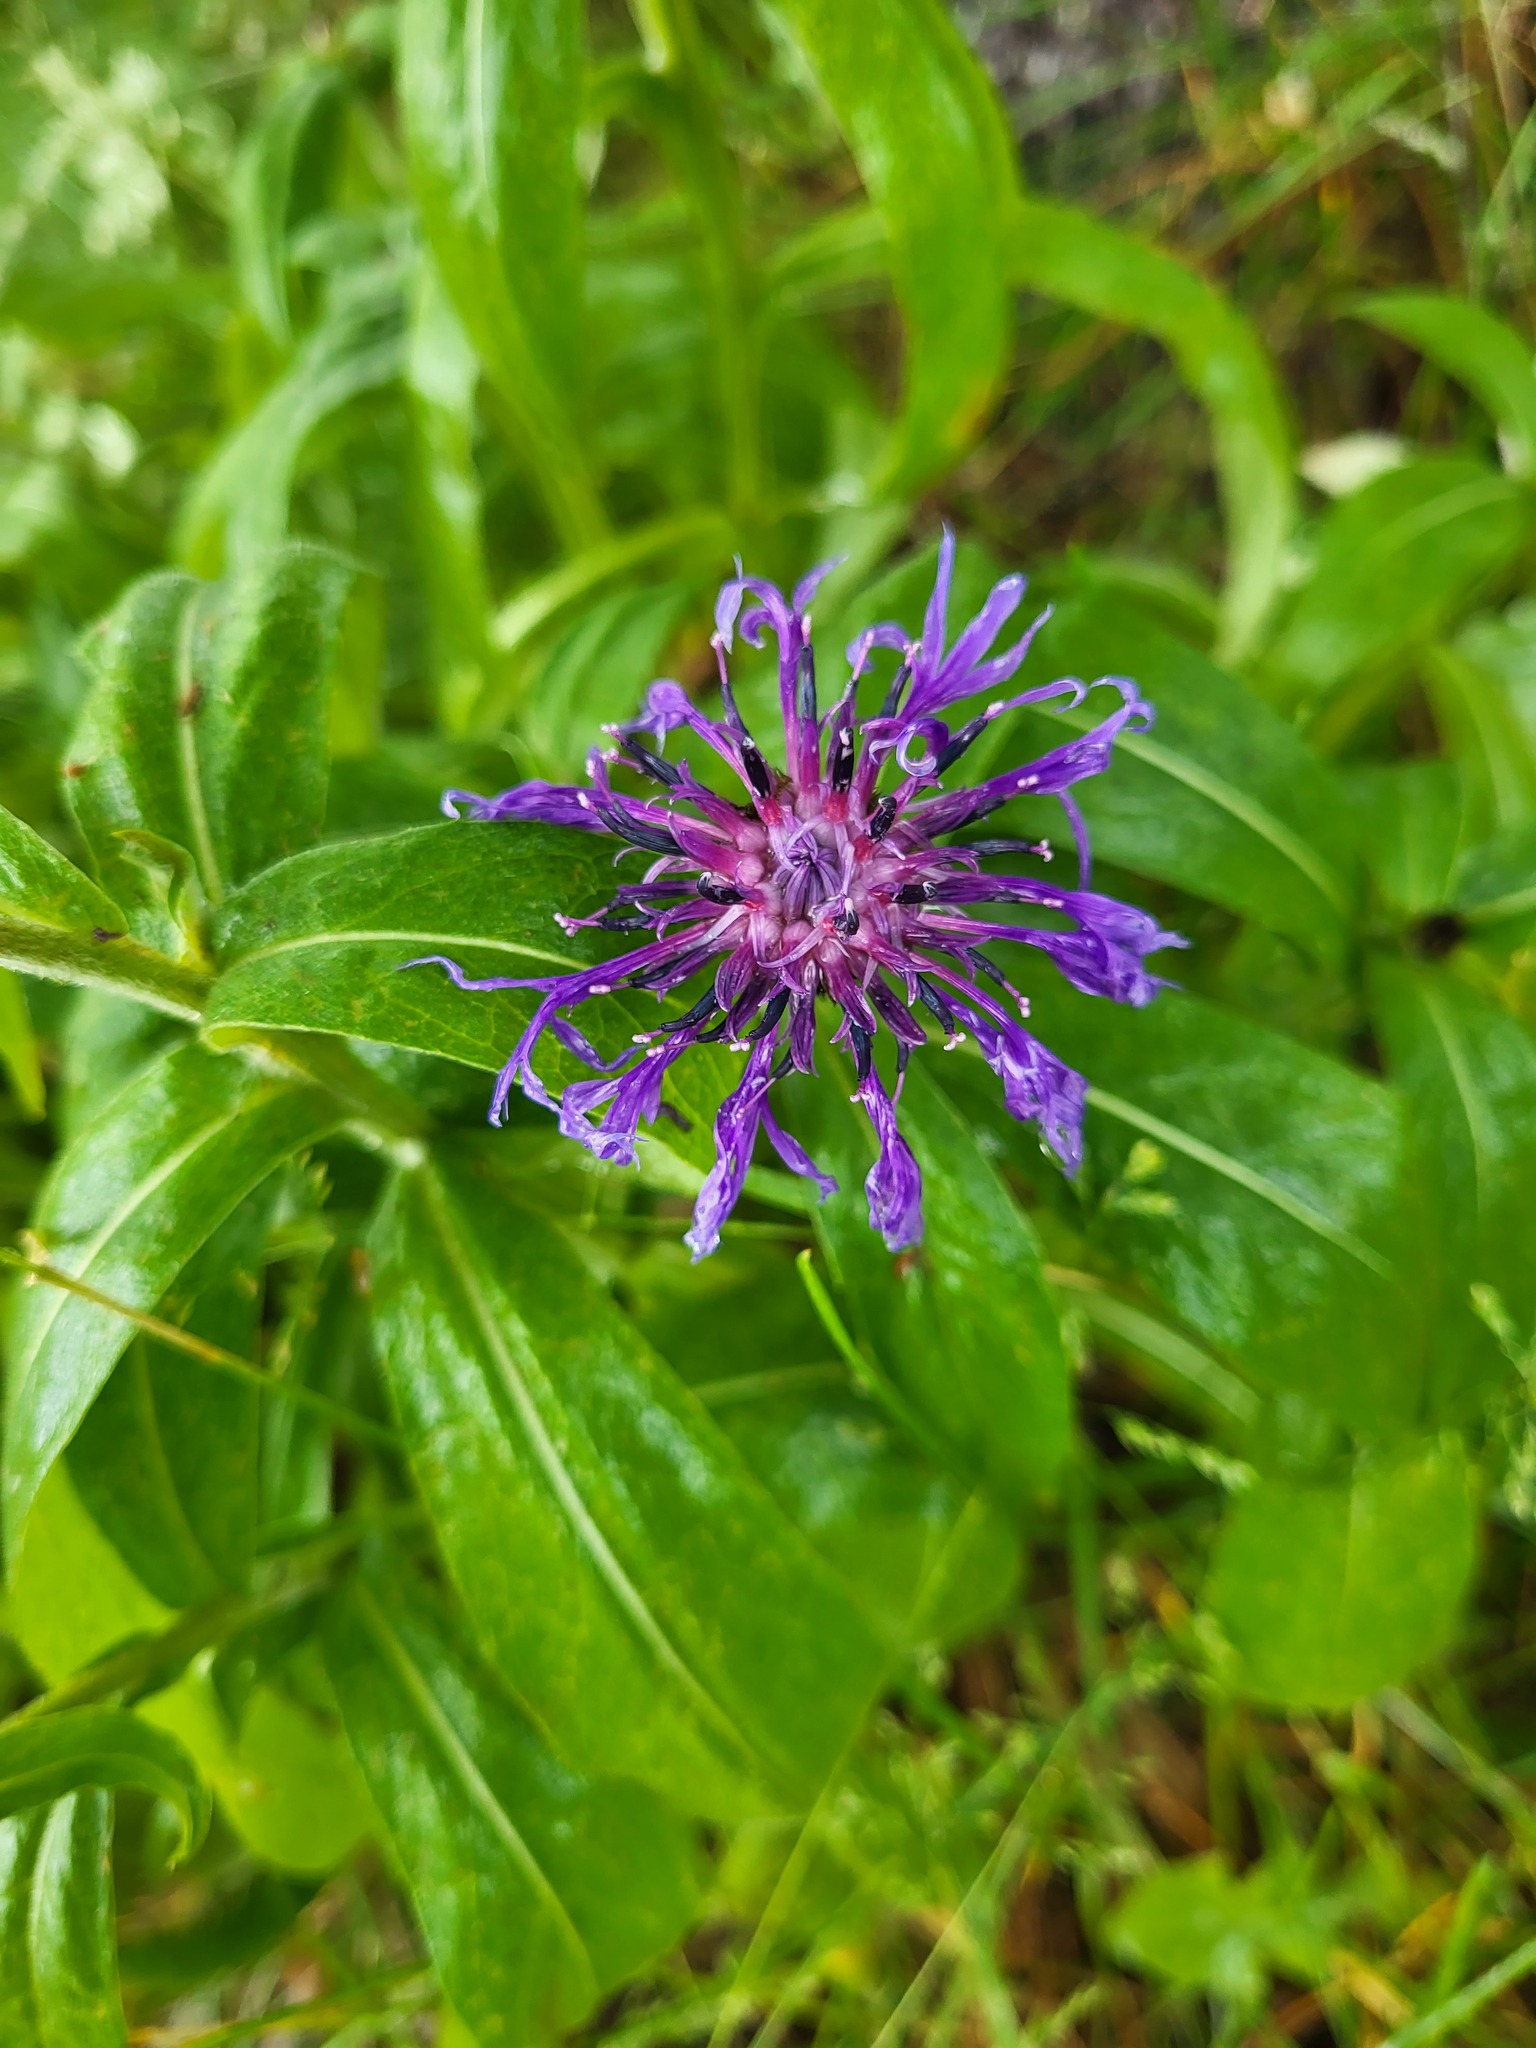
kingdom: Plantae
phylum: Tracheophyta
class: Magnoliopsida
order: Asterales
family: Asteraceae
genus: Centaurea
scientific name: Centaurea montana
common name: Perennial cornflower
